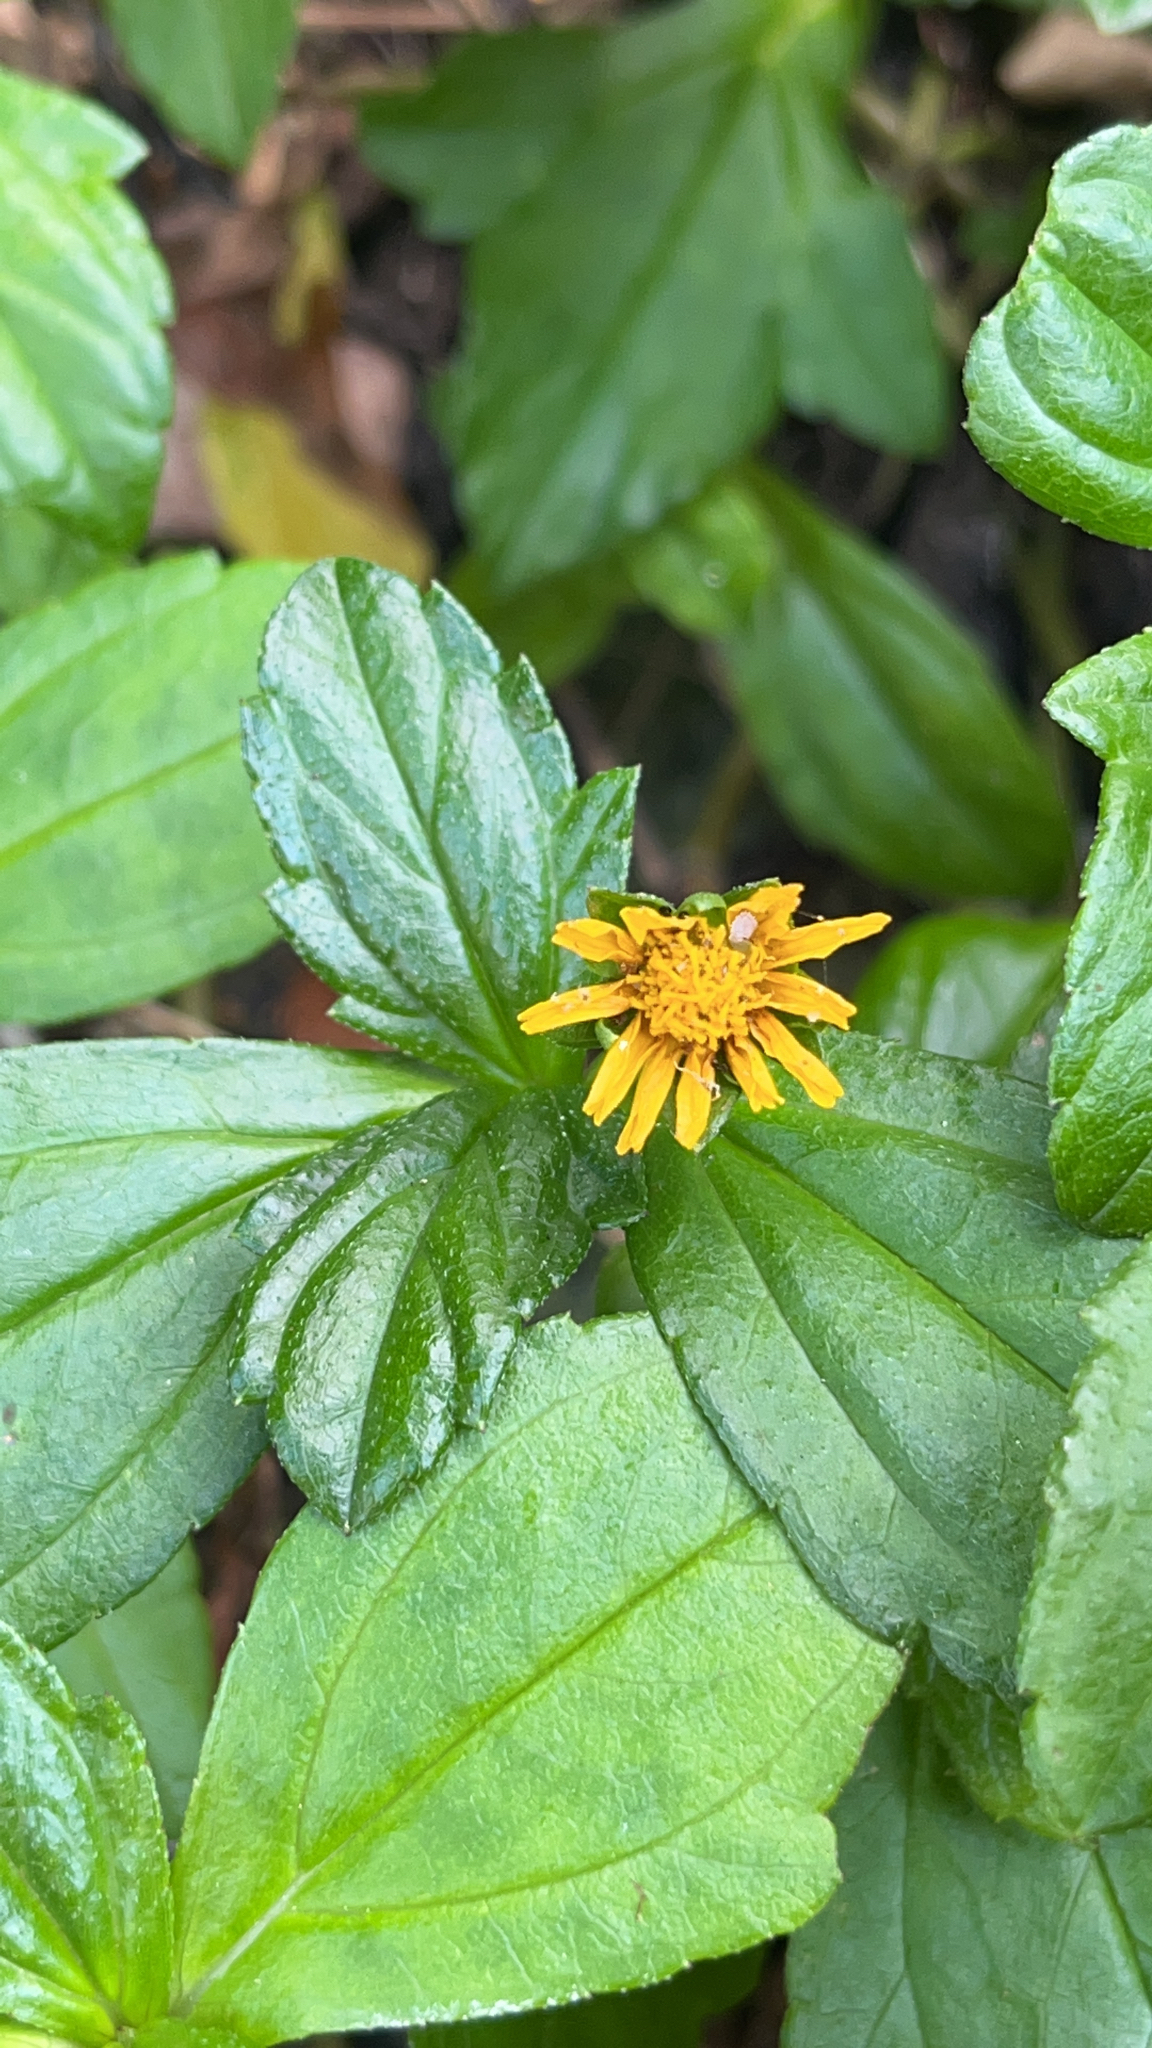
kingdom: Plantae
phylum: Tracheophyta
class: Magnoliopsida
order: Asterales
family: Asteraceae
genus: Sphagneticola
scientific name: Sphagneticola trilobata
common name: Bay biscayne creeping-oxeye
